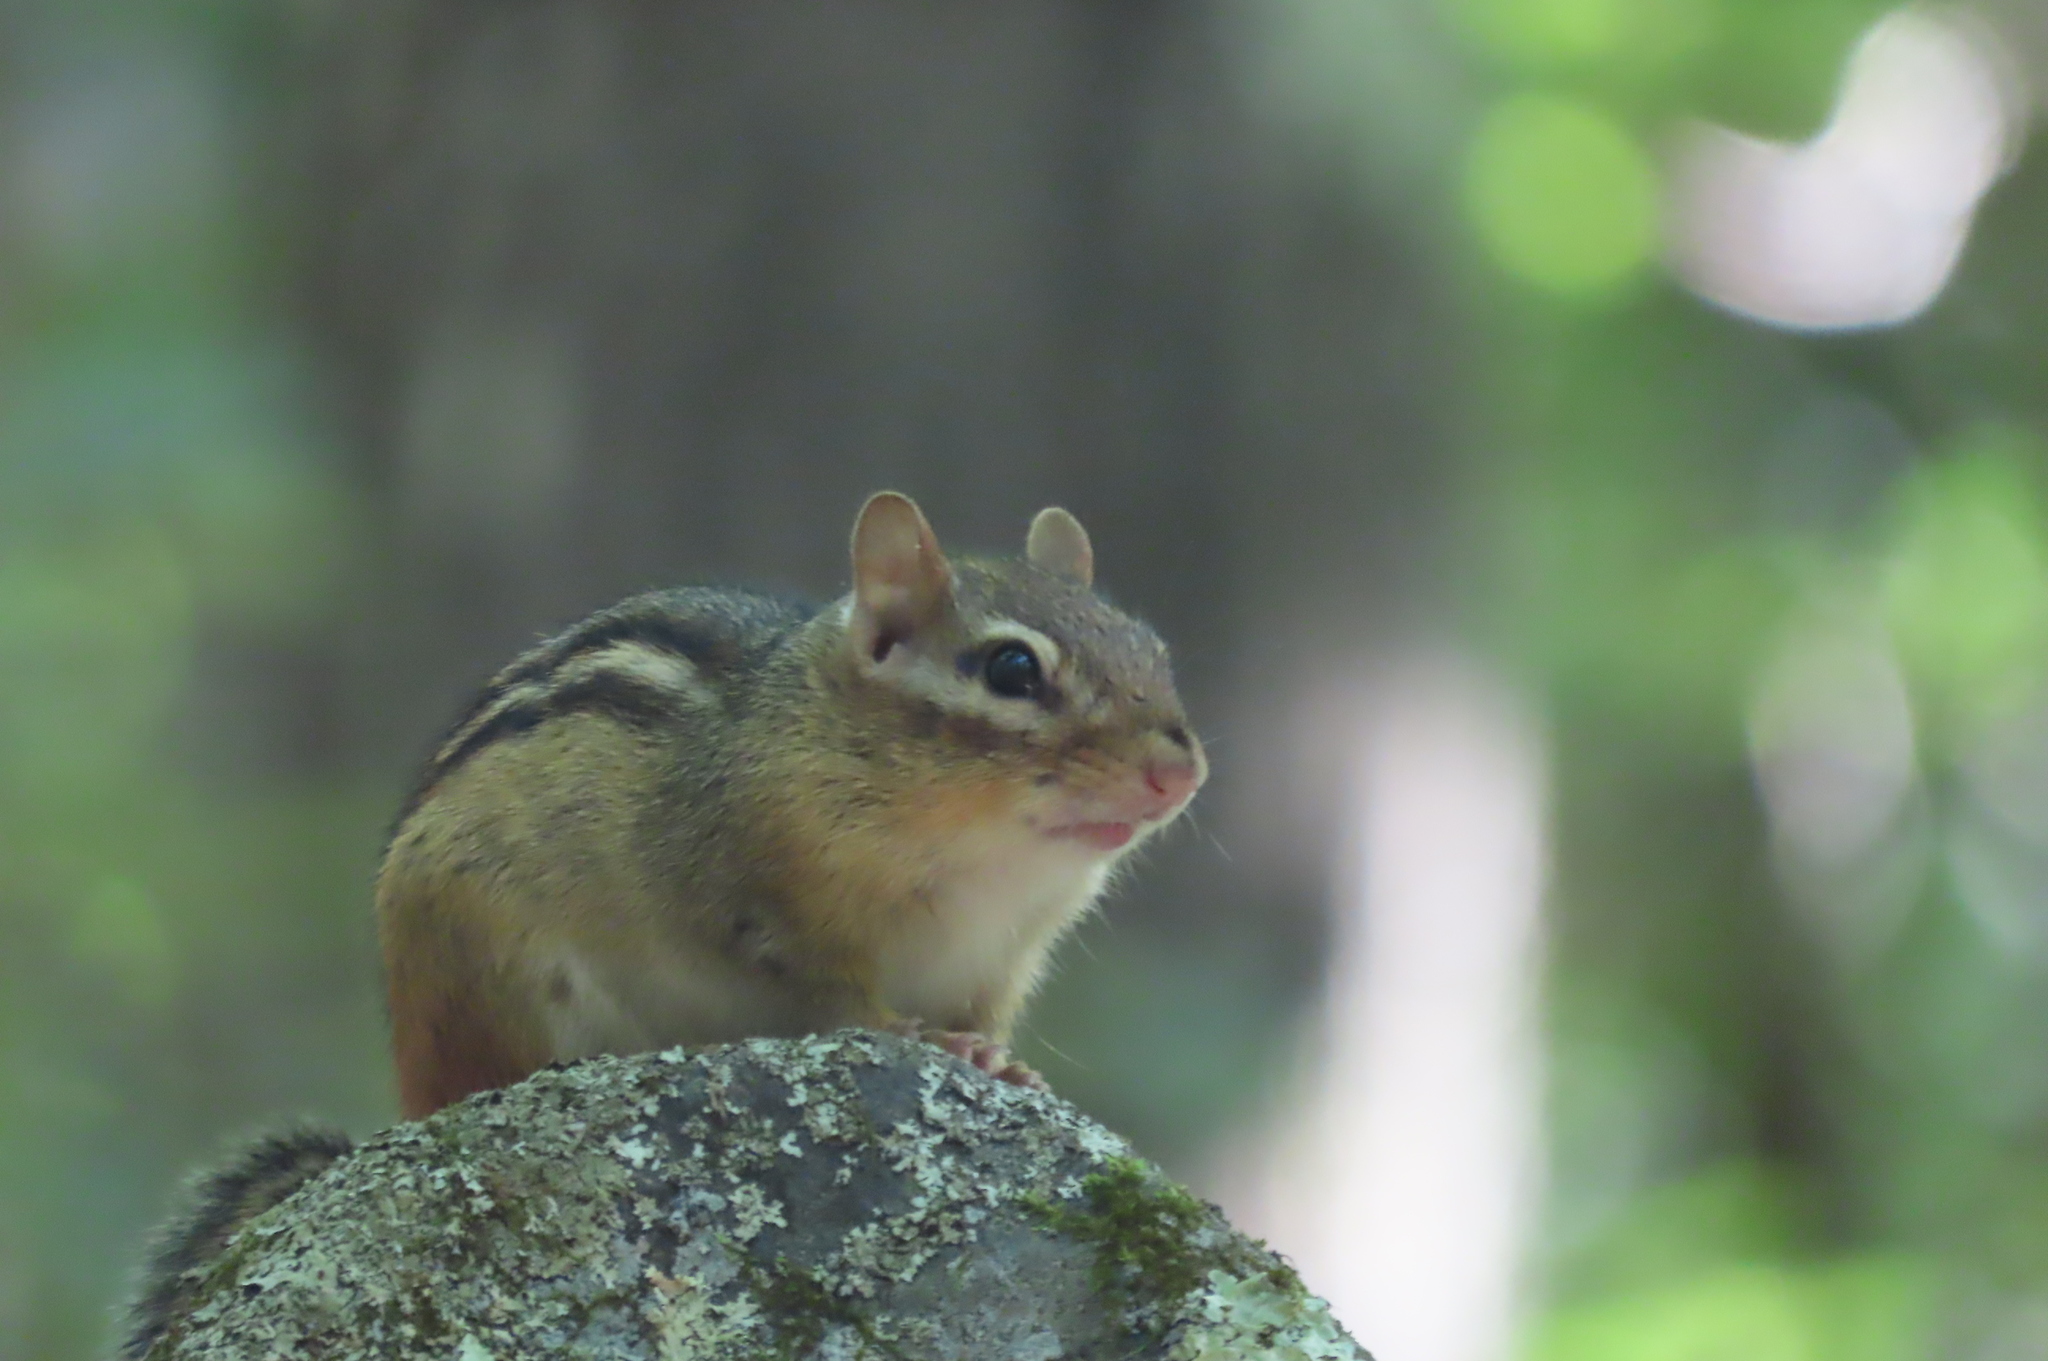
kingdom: Animalia
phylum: Chordata
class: Mammalia
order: Rodentia
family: Sciuridae
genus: Tamias
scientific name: Tamias striatus
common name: Eastern chipmunk
